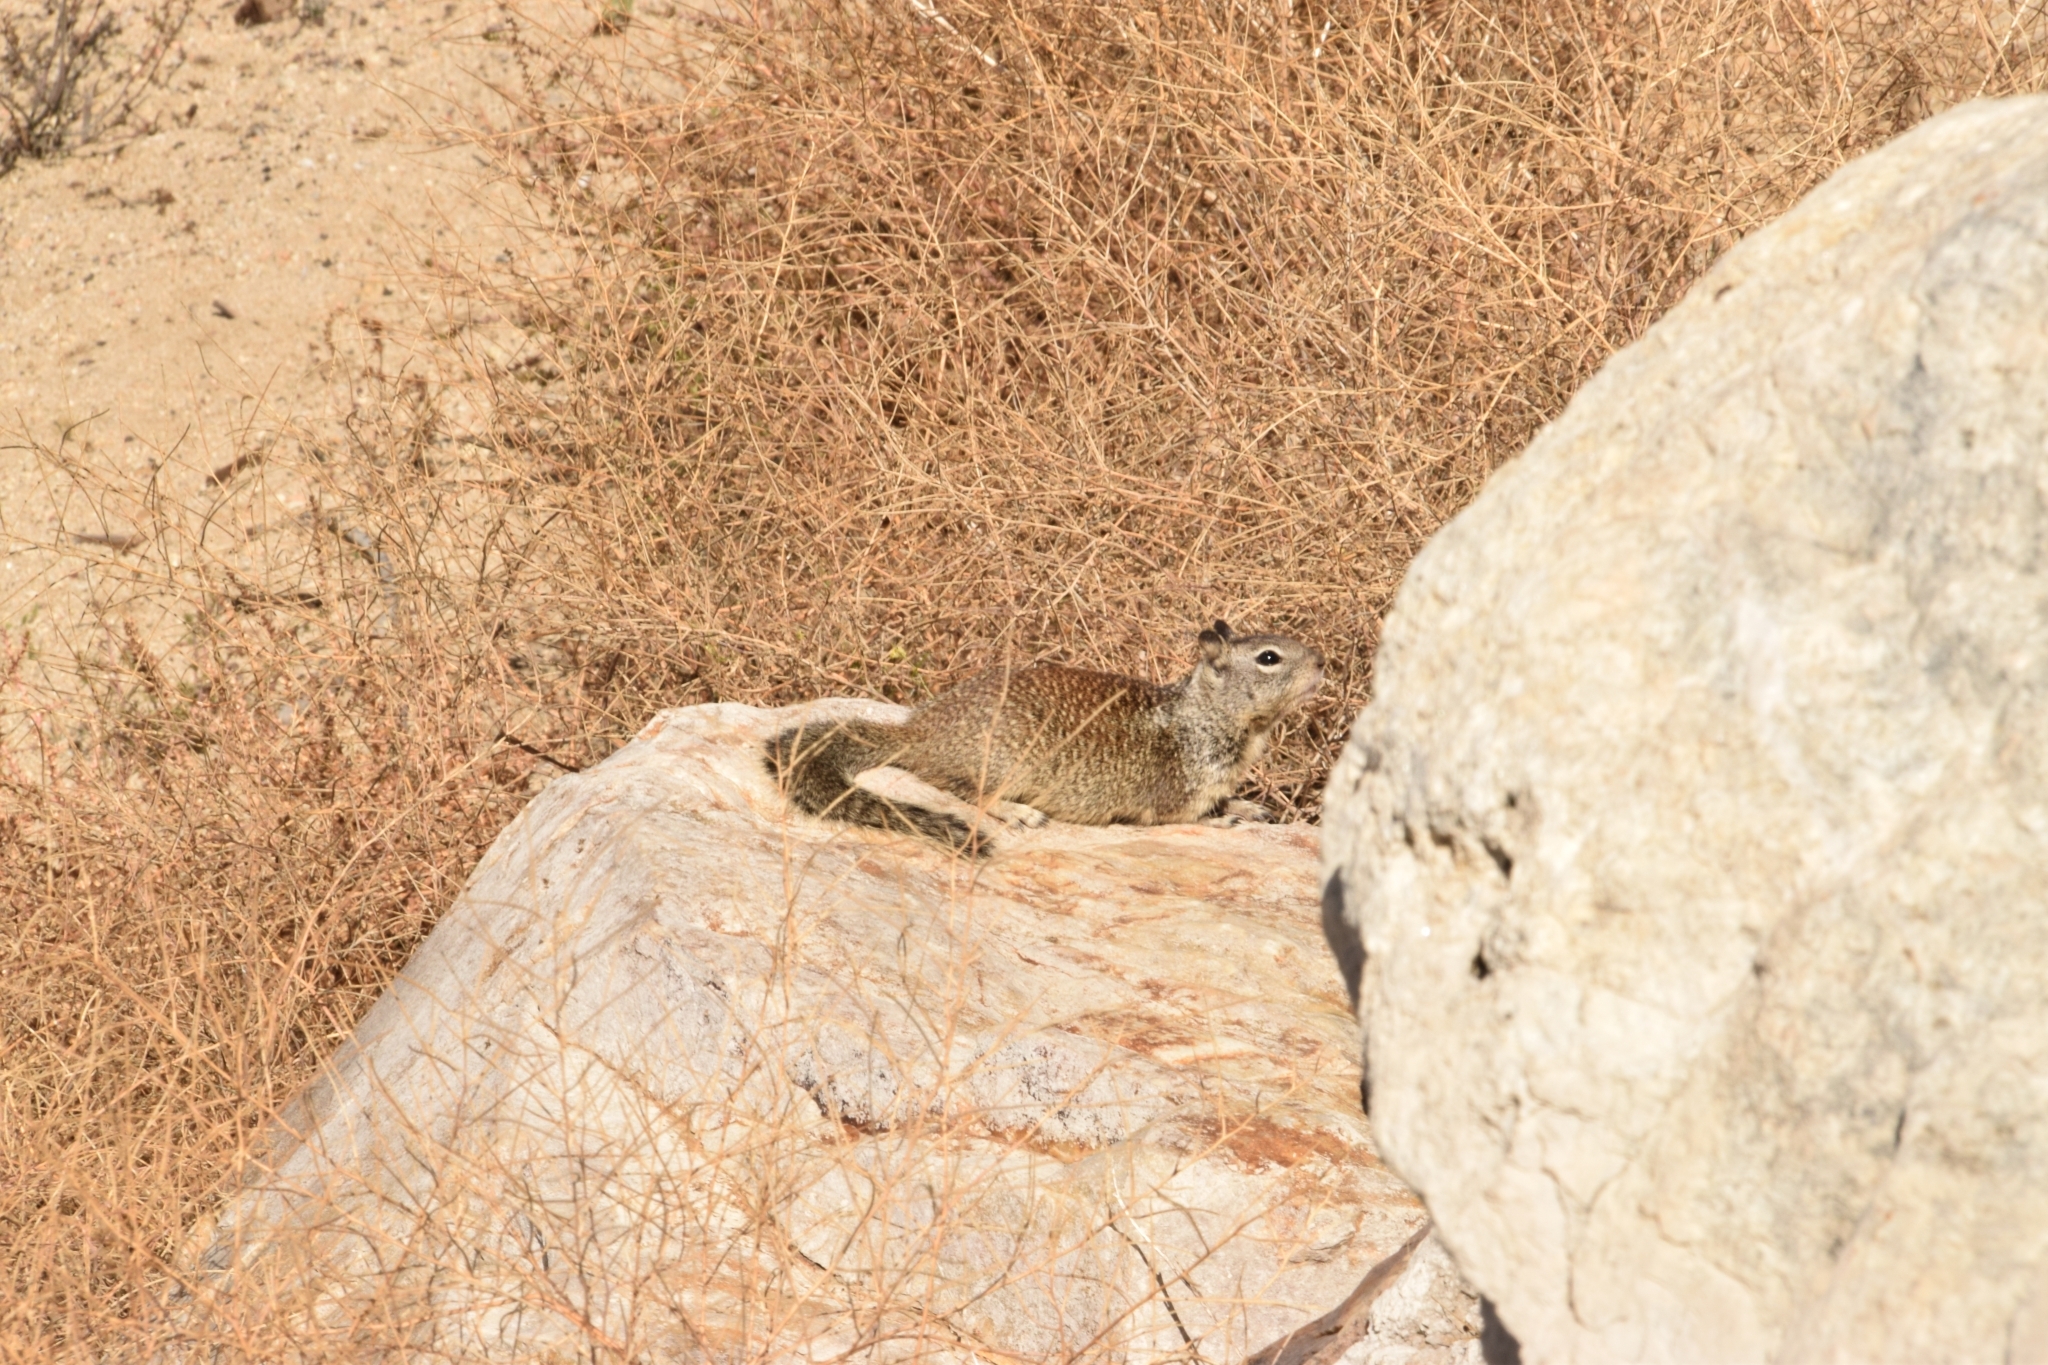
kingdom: Animalia
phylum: Chordata
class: Mammalia
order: Rodentia
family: Sciuridae
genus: Otospermophilus
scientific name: Otospermophilus beecheyi
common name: California ground squirrel
